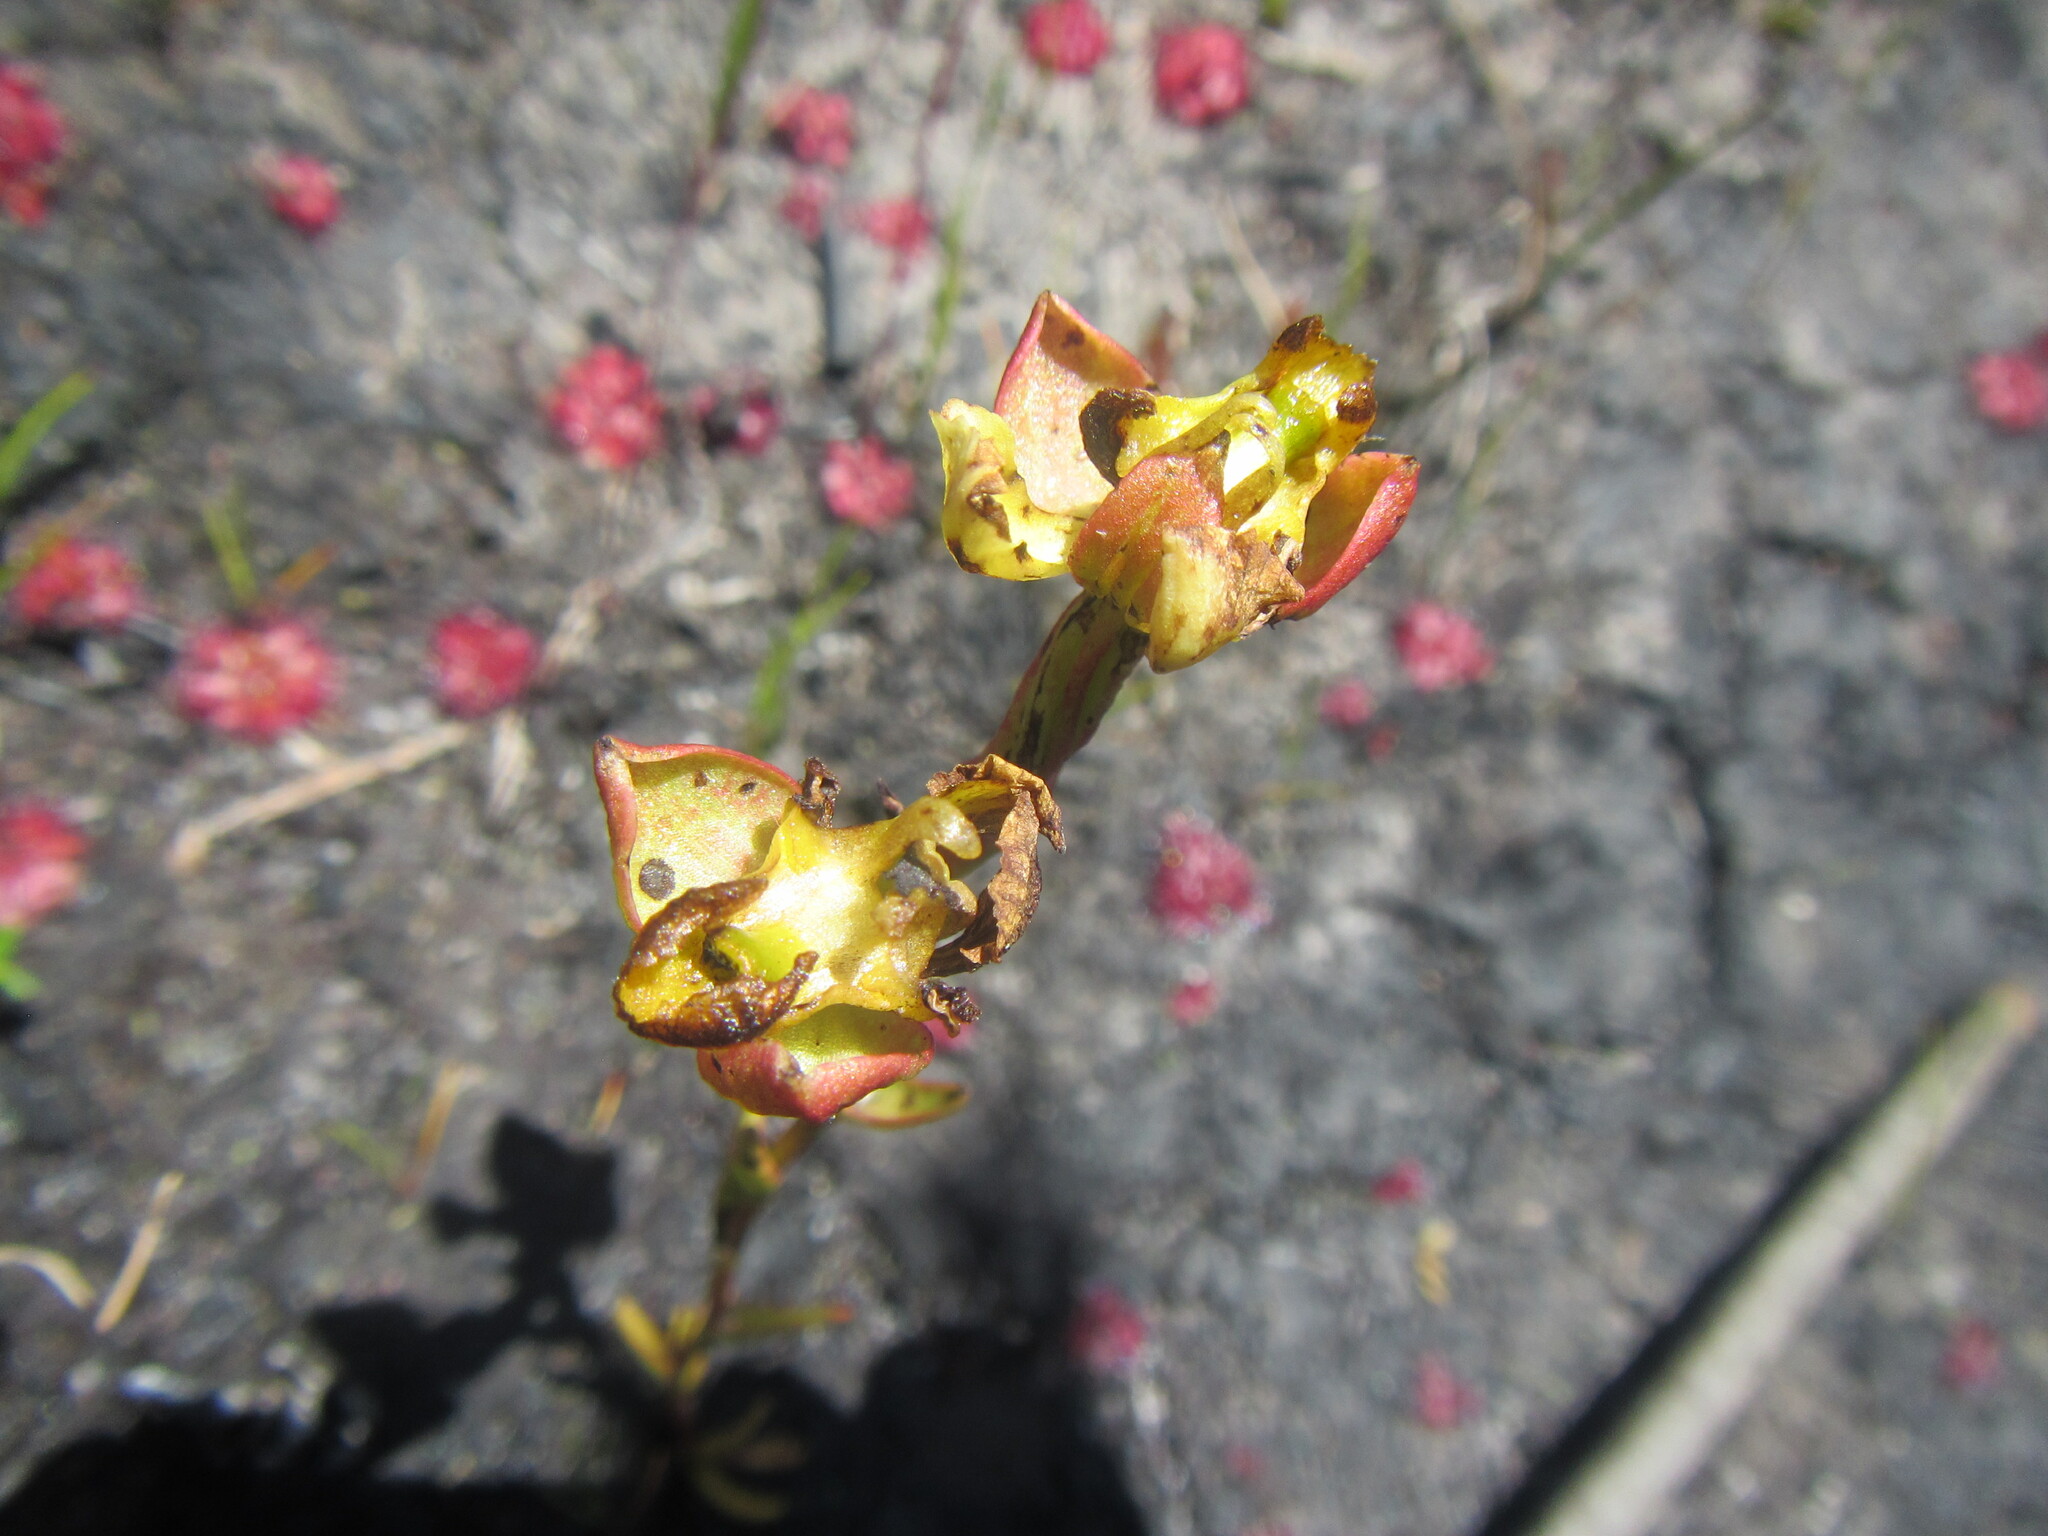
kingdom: Plantae
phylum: Tracheophyta
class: Liliopsida
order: Asparagales
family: Orchidaceae
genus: Ceratandra
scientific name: Ceratandra bicolor
